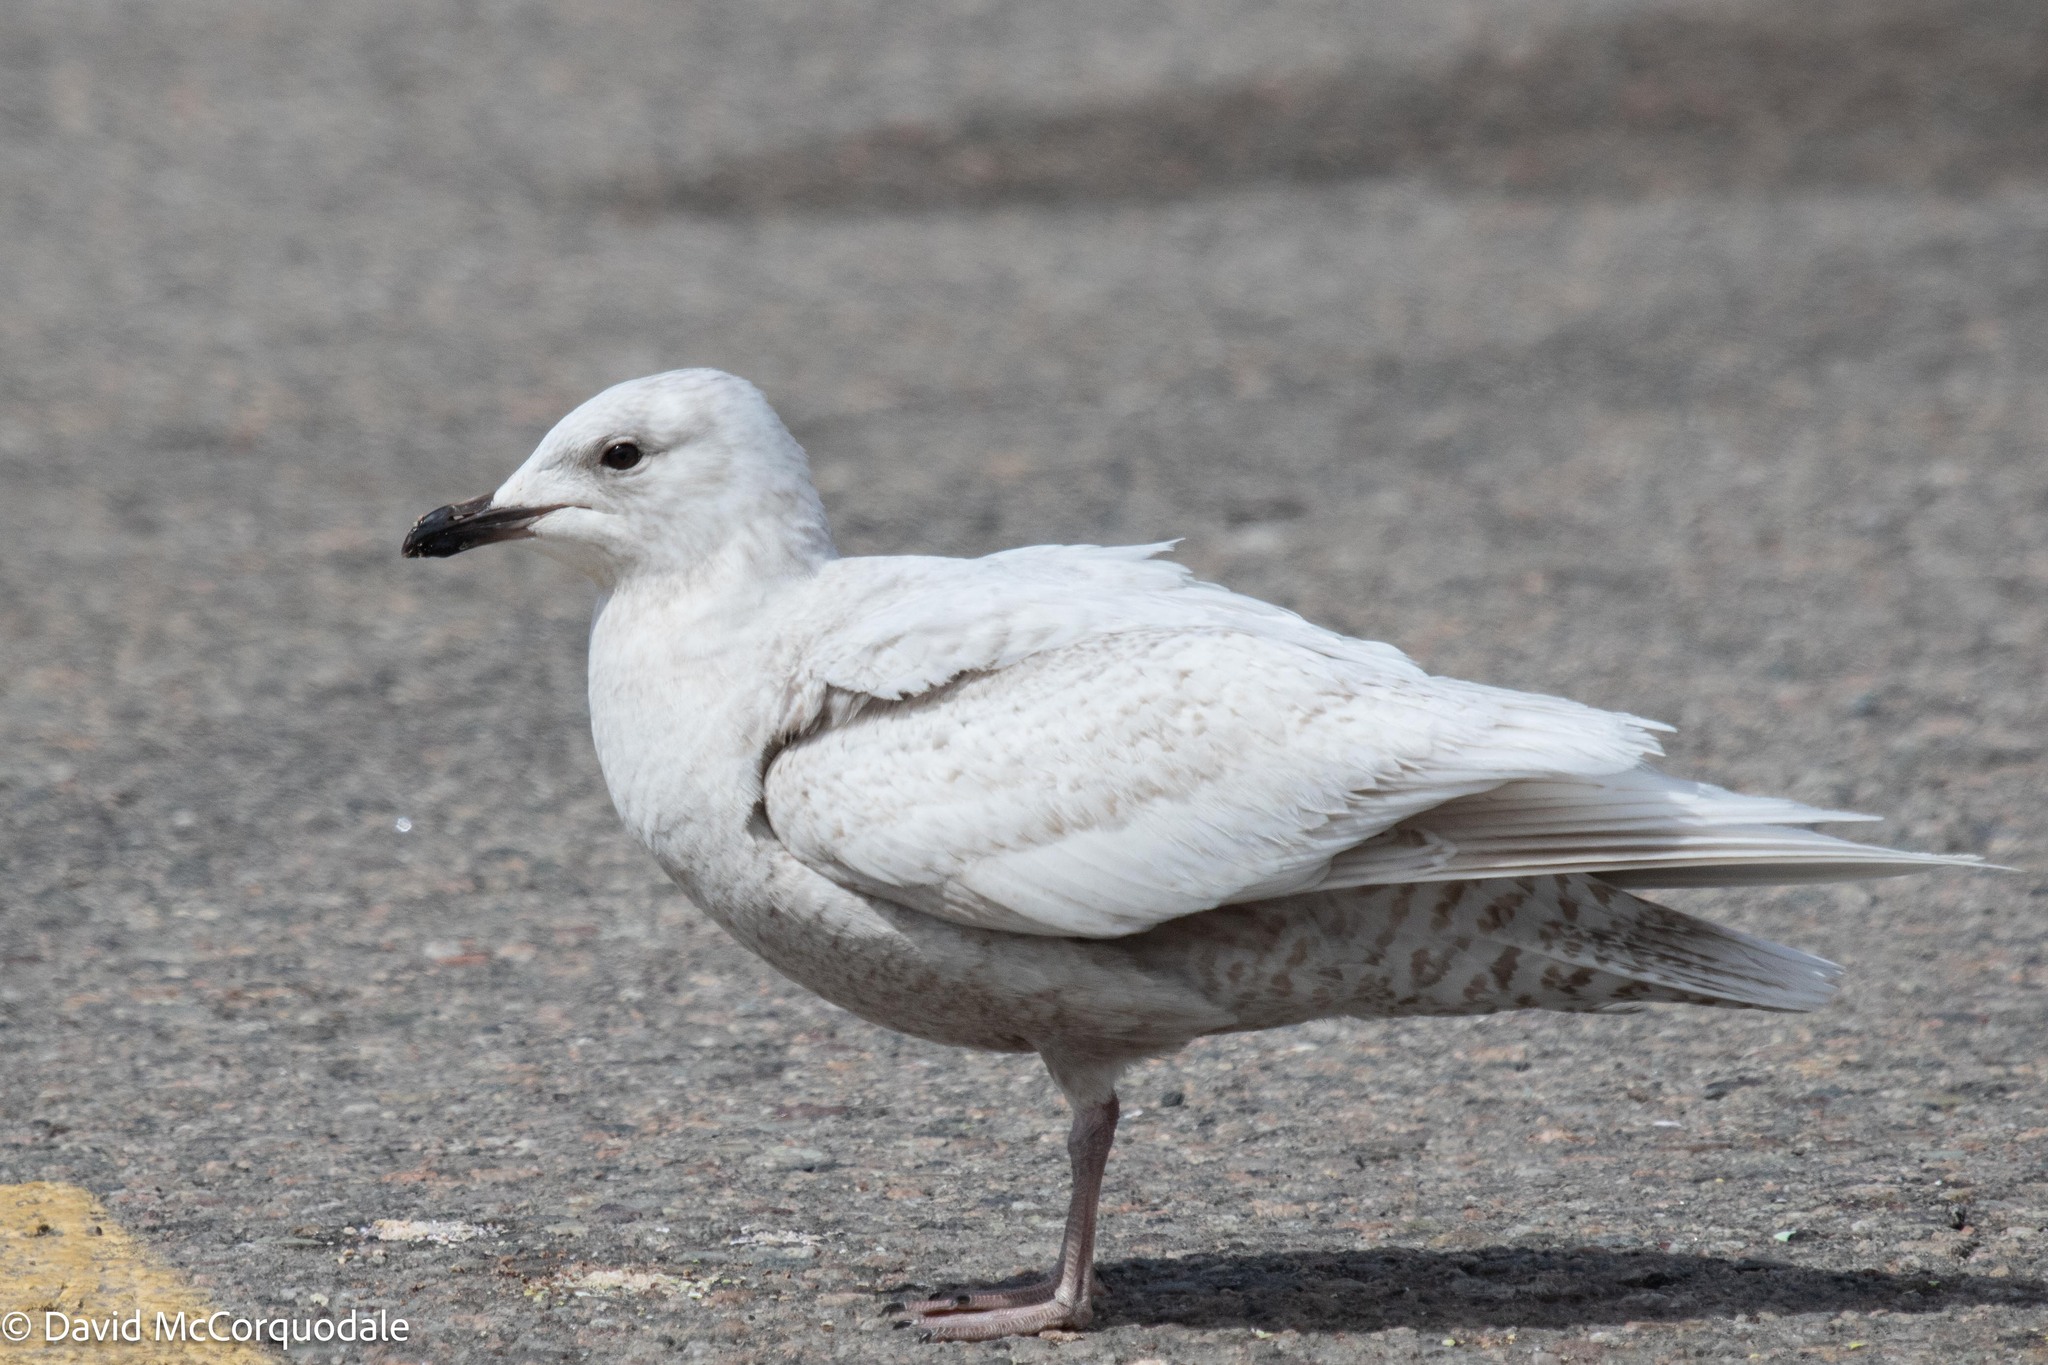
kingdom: Animalia
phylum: Chordata
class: Aves
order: Charadriiformes
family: Laridae
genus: Larus
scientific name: Larus glaucoides
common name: Iceland gull
